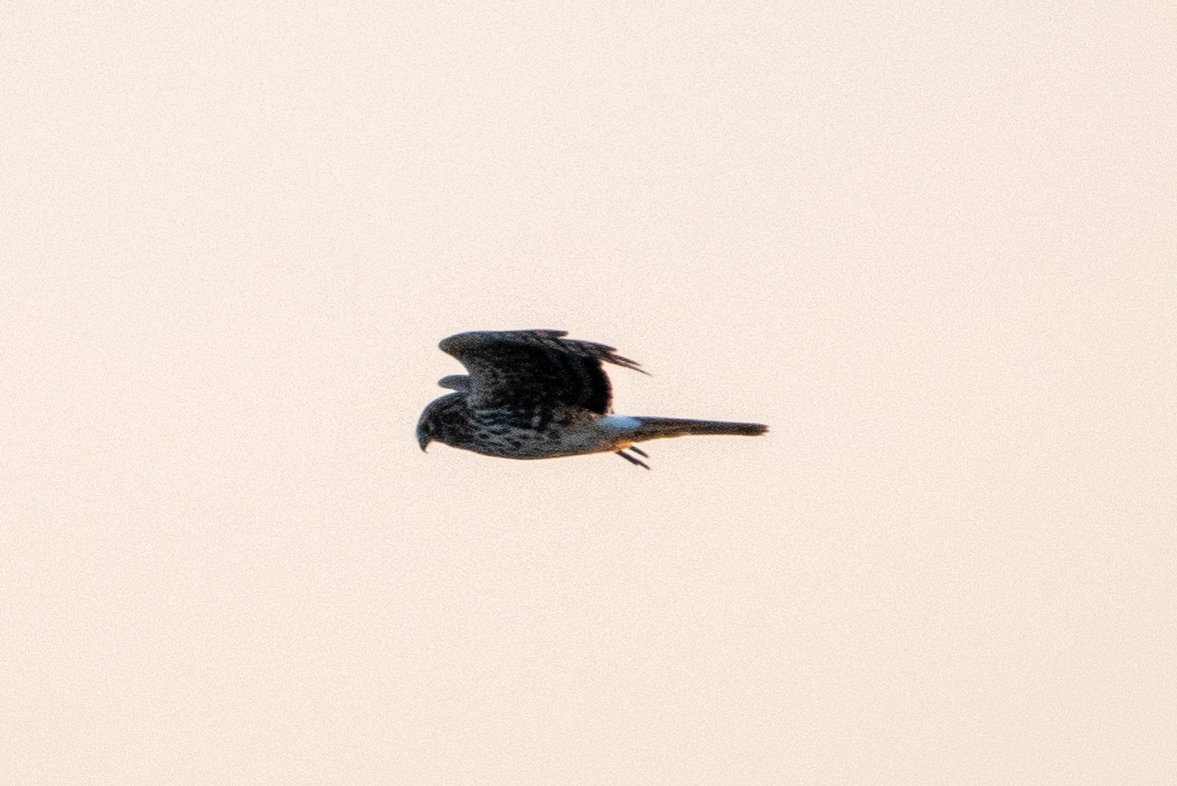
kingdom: Animalia
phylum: Chordata
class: Aves
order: Accipitriformes
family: Accipitridae
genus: Circus
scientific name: Circus cyaneus
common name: Hen harrier
